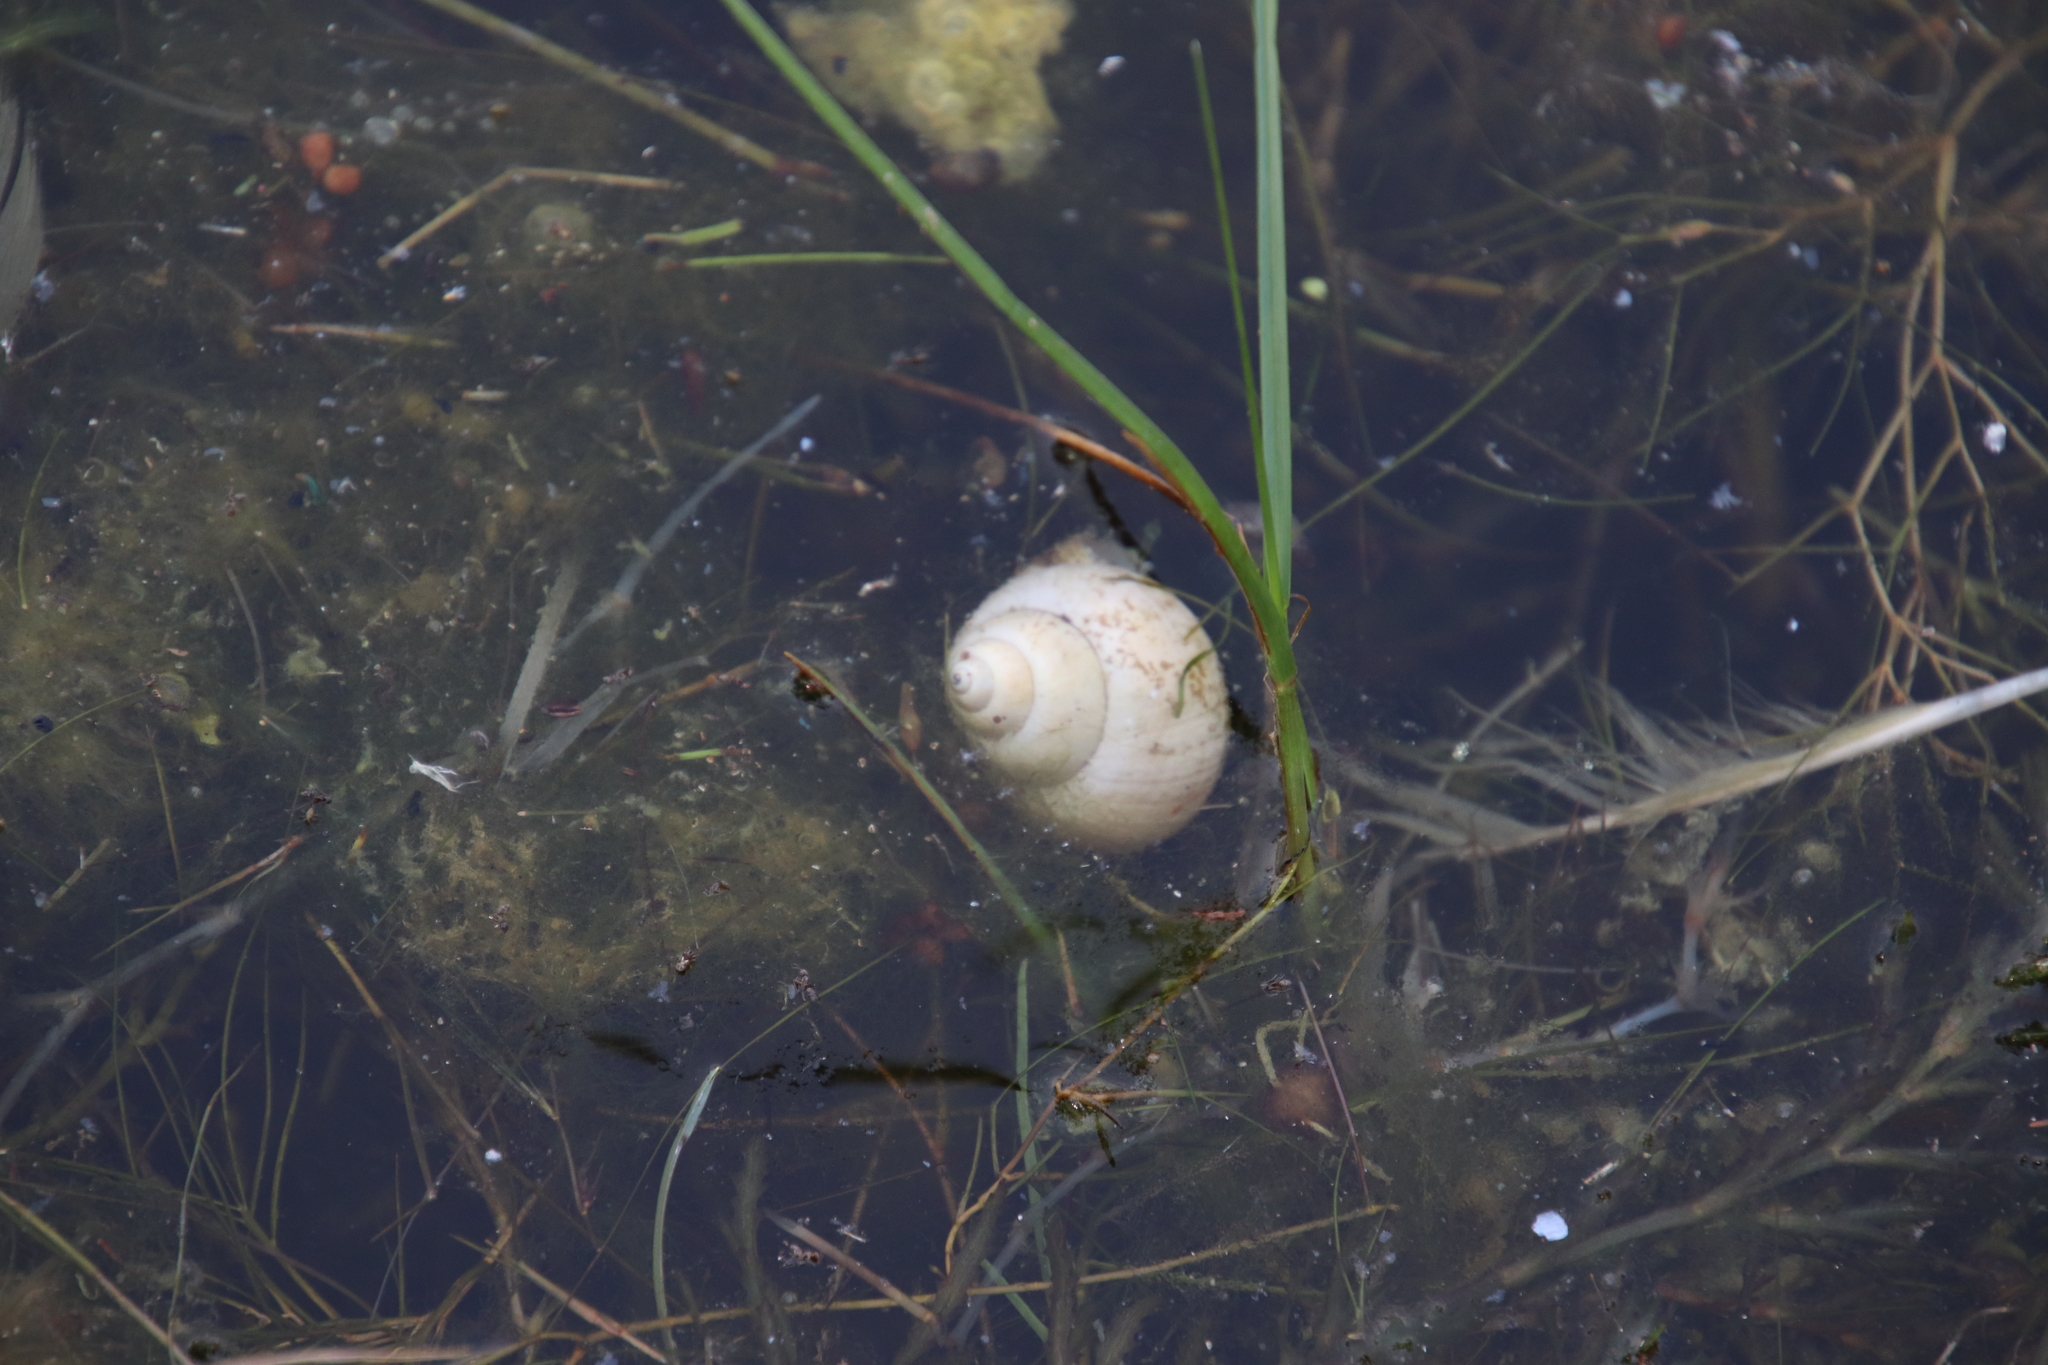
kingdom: Animalia
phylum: Mollusca
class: Gastropoda
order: Architaenioglossa
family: Viviparidae
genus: Cipangopaludina
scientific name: Cipangopaludina chinensis
